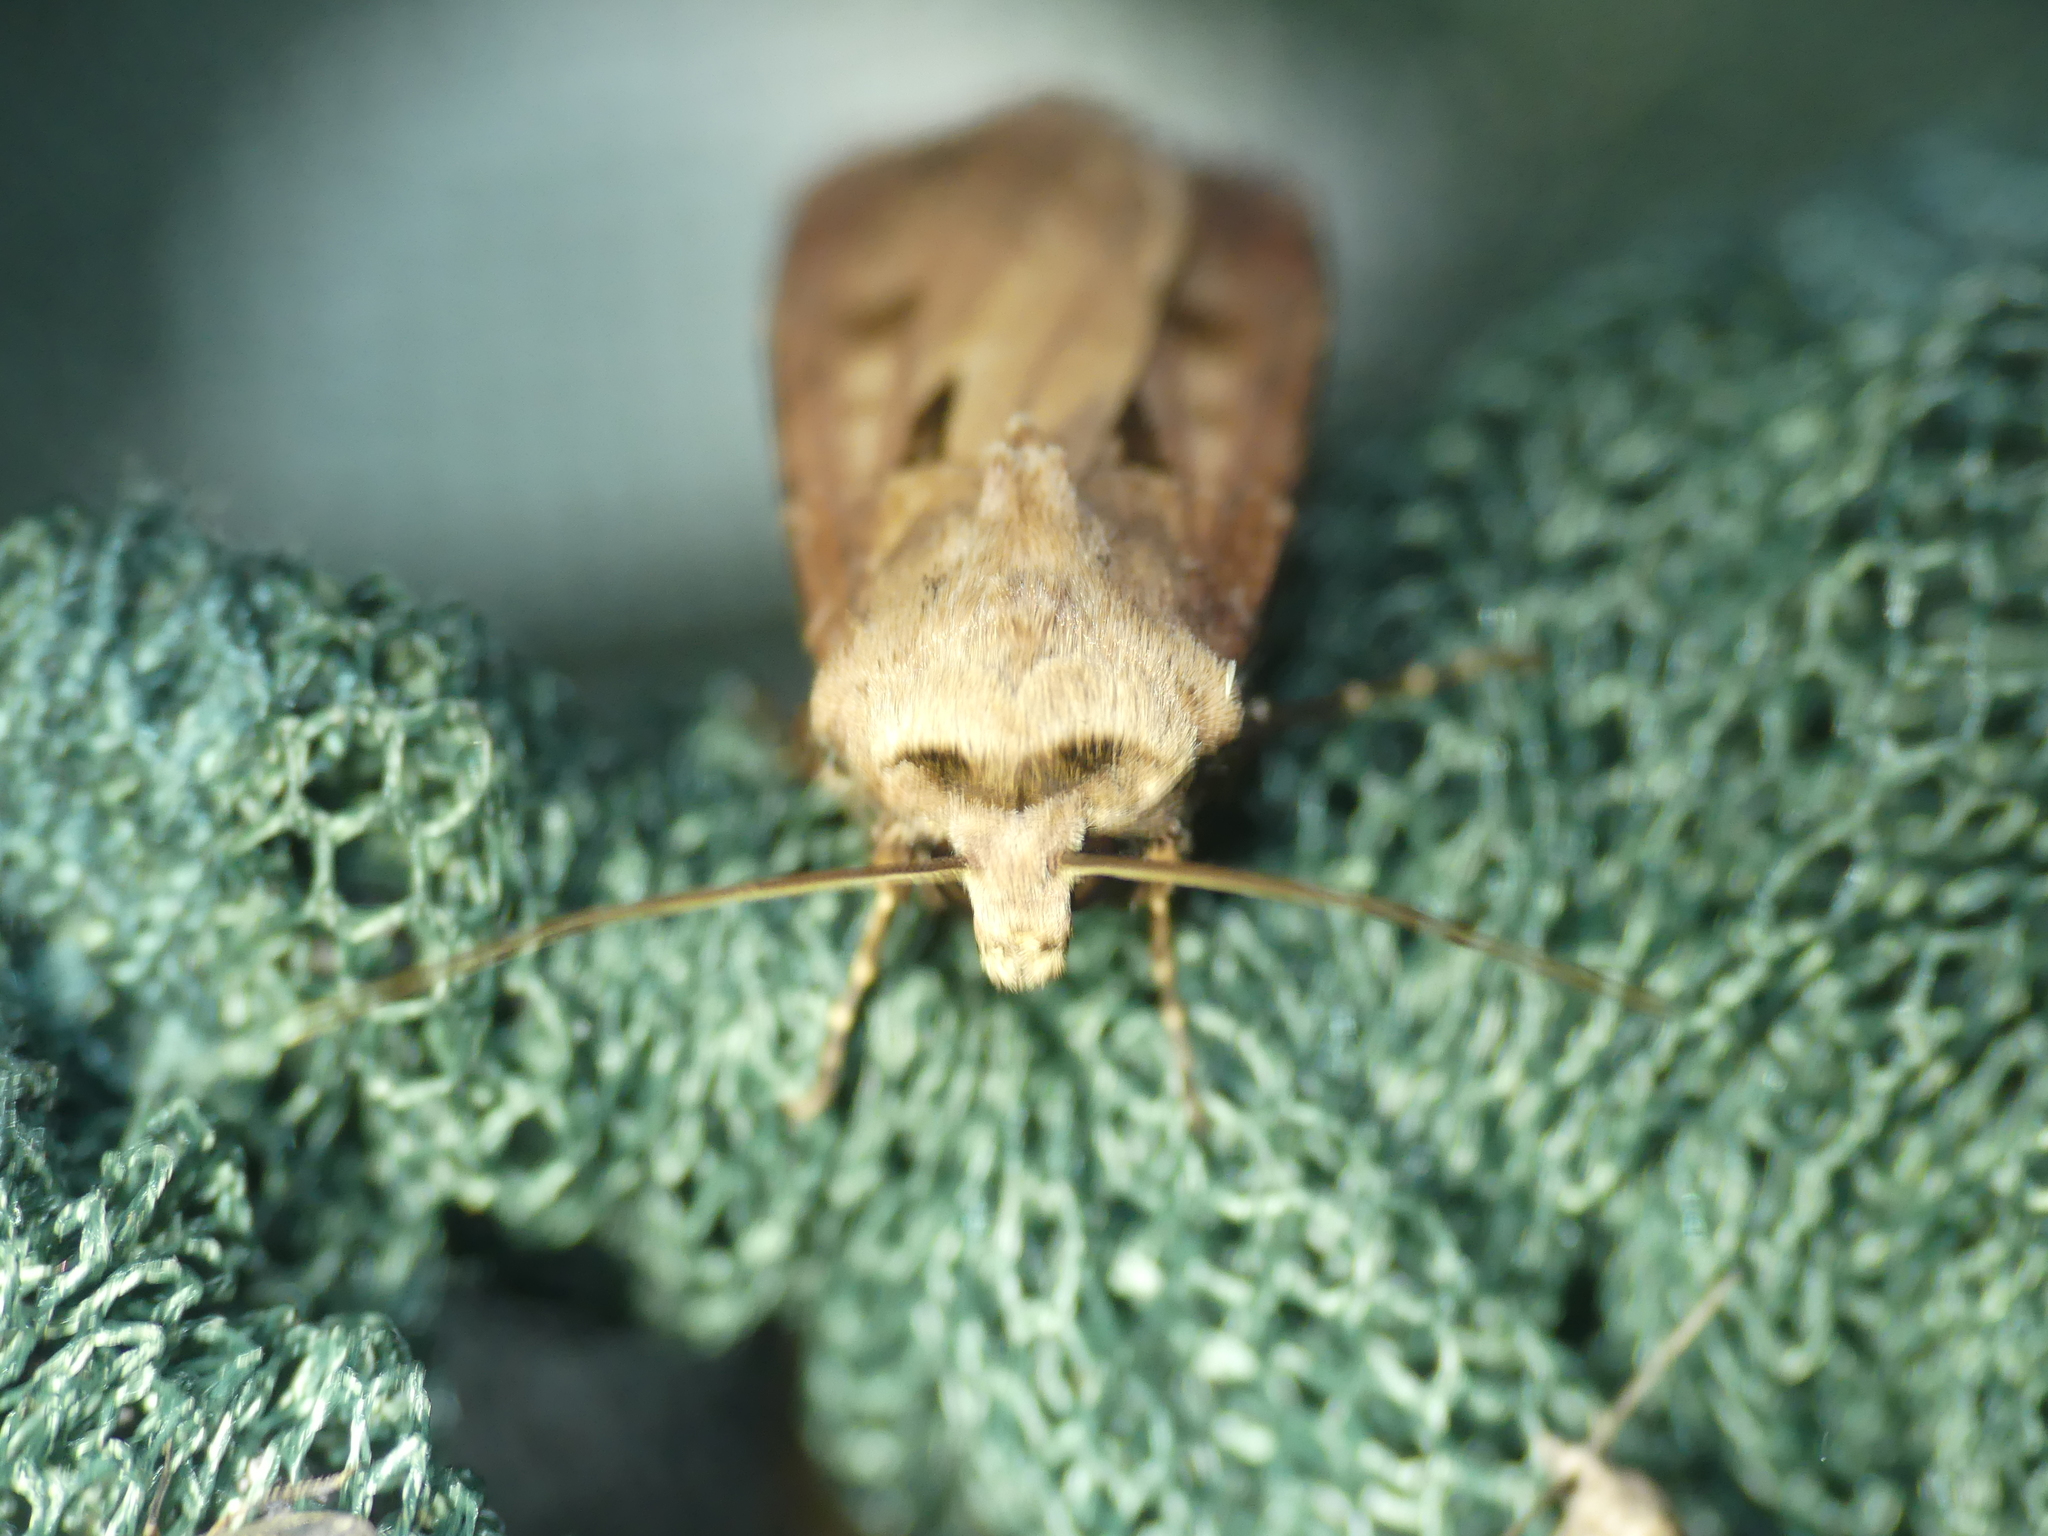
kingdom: Animalia
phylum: Arthropoda
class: Insecta
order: Lepidoptera
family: Noctuidae
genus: Agrotis
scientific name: Agrotis exclamationis
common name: Heart and dart
